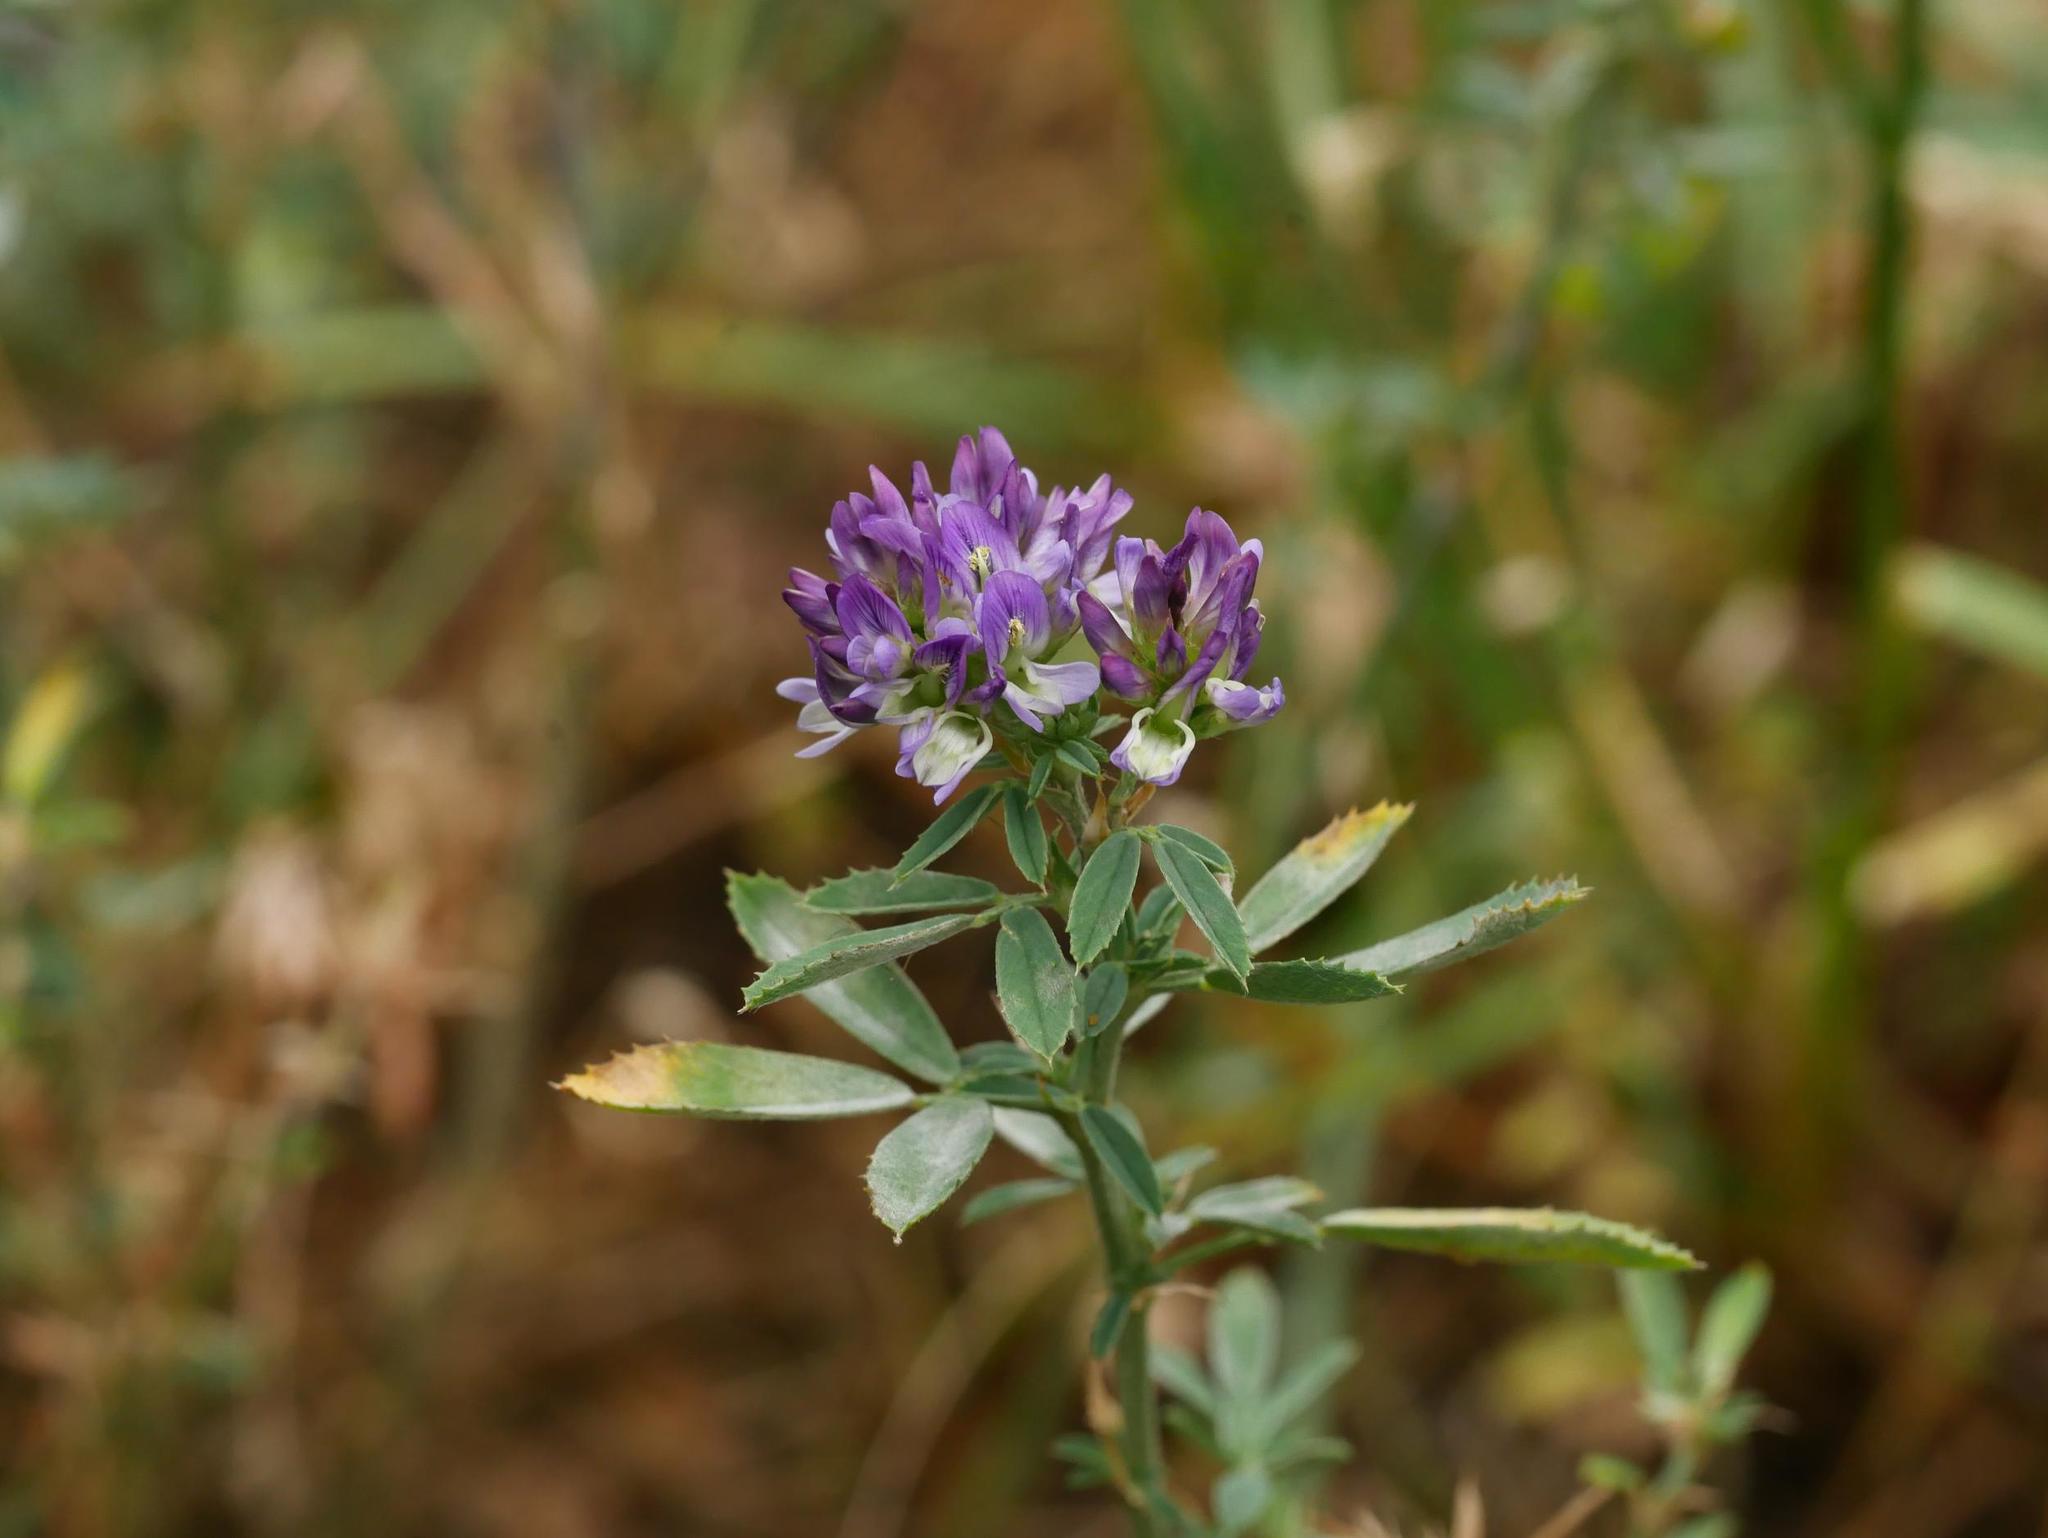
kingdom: Fungi
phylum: Ascomycota
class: Leotiomycetes
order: Helotiales
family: Erysiphaceae
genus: Erysiphe
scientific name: Erysiphe pisi
